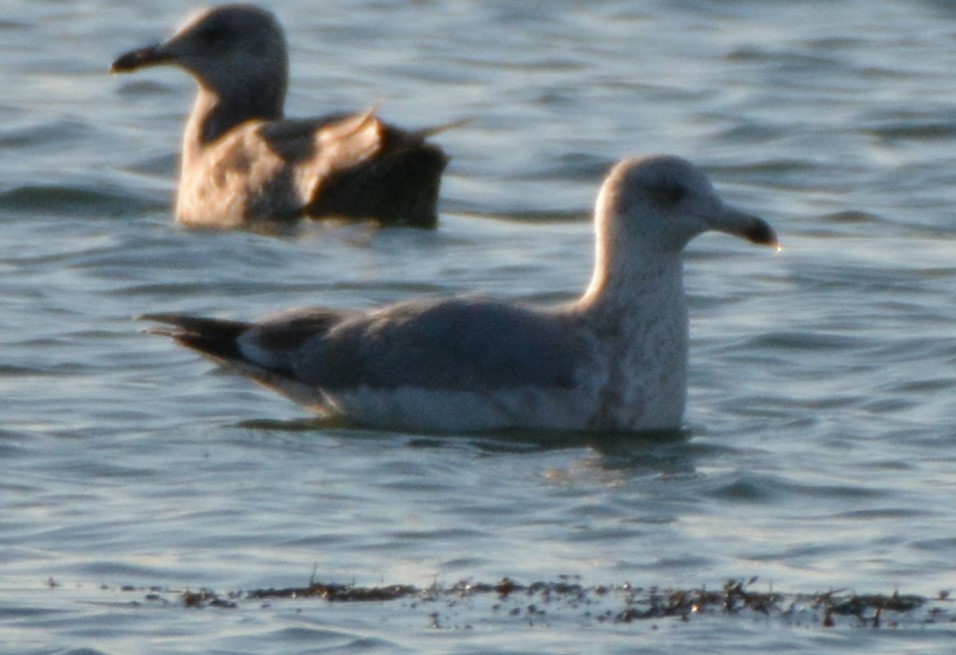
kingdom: Animalia
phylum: Chordata
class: Aves
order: Charadriiformes
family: Laridae
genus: Larus
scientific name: Larus argentatus
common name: Herring gull
